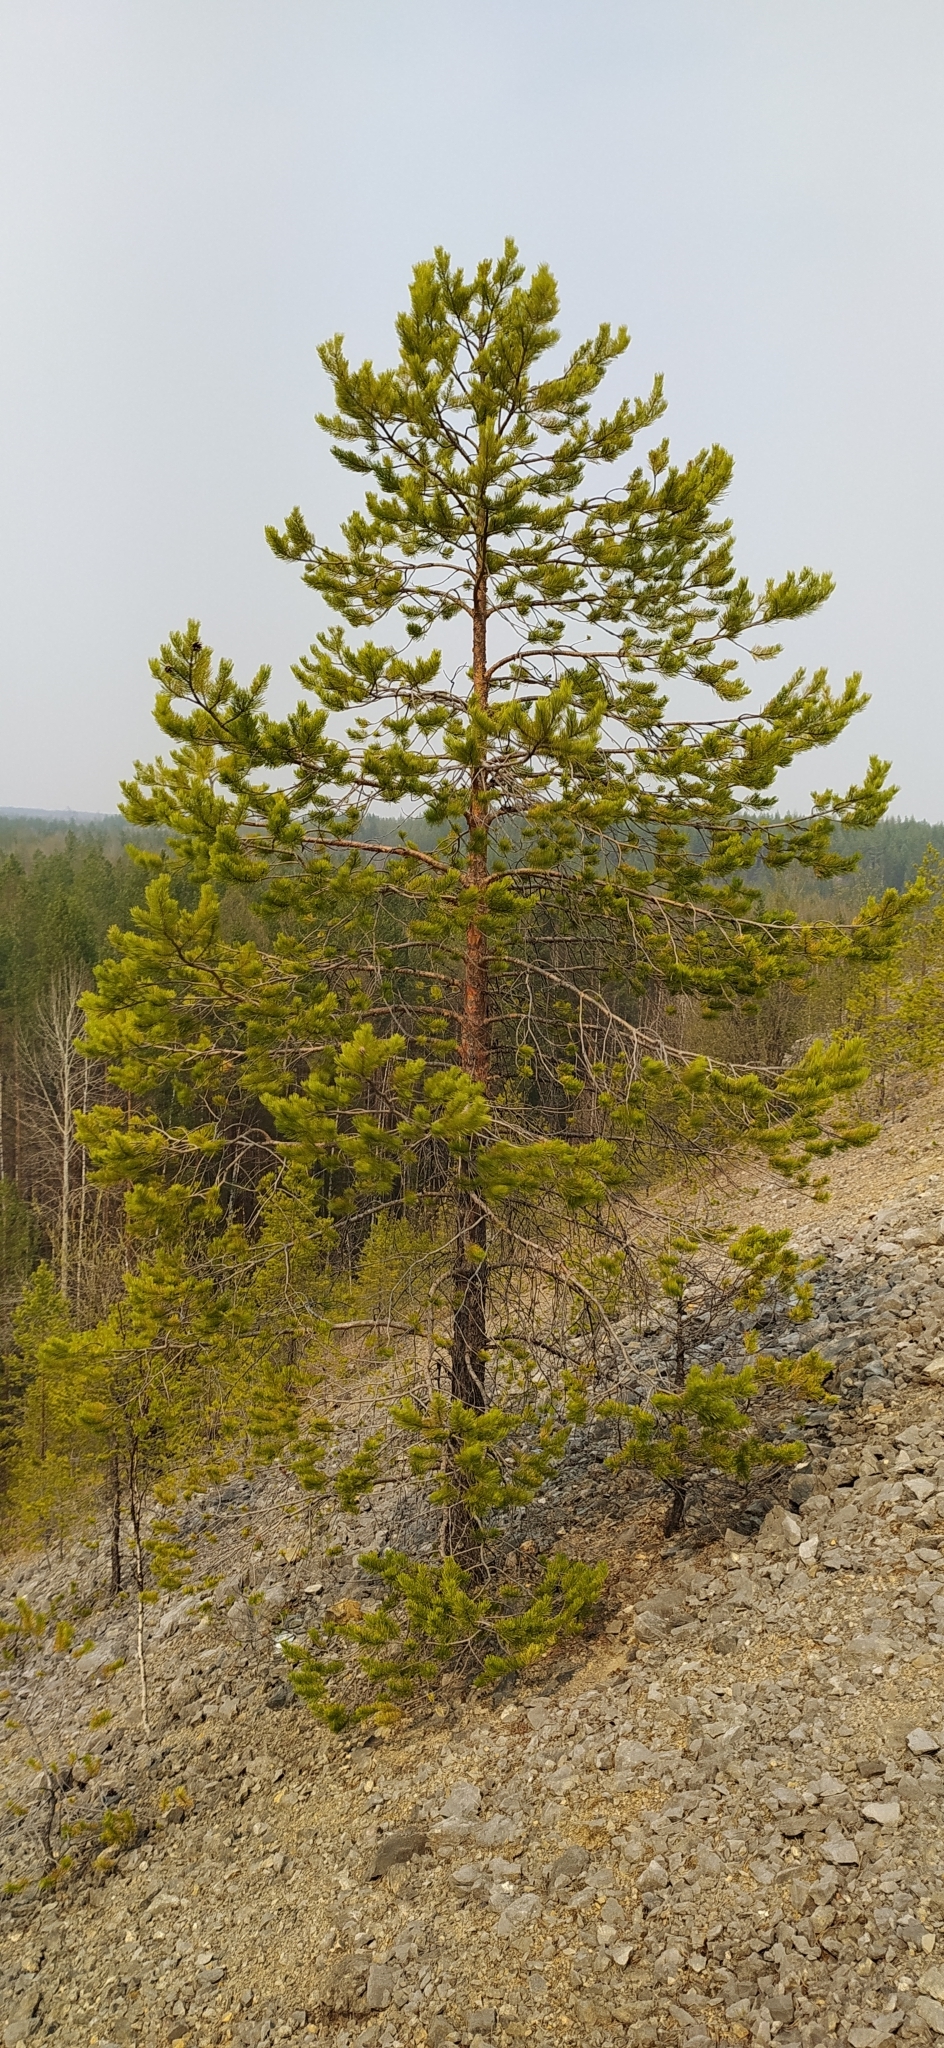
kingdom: Plantae
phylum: Tracheophyta
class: Pinopsida
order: Pinales
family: Pinaceae
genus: Pinus
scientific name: Pinus sylvestris
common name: Scots pine
